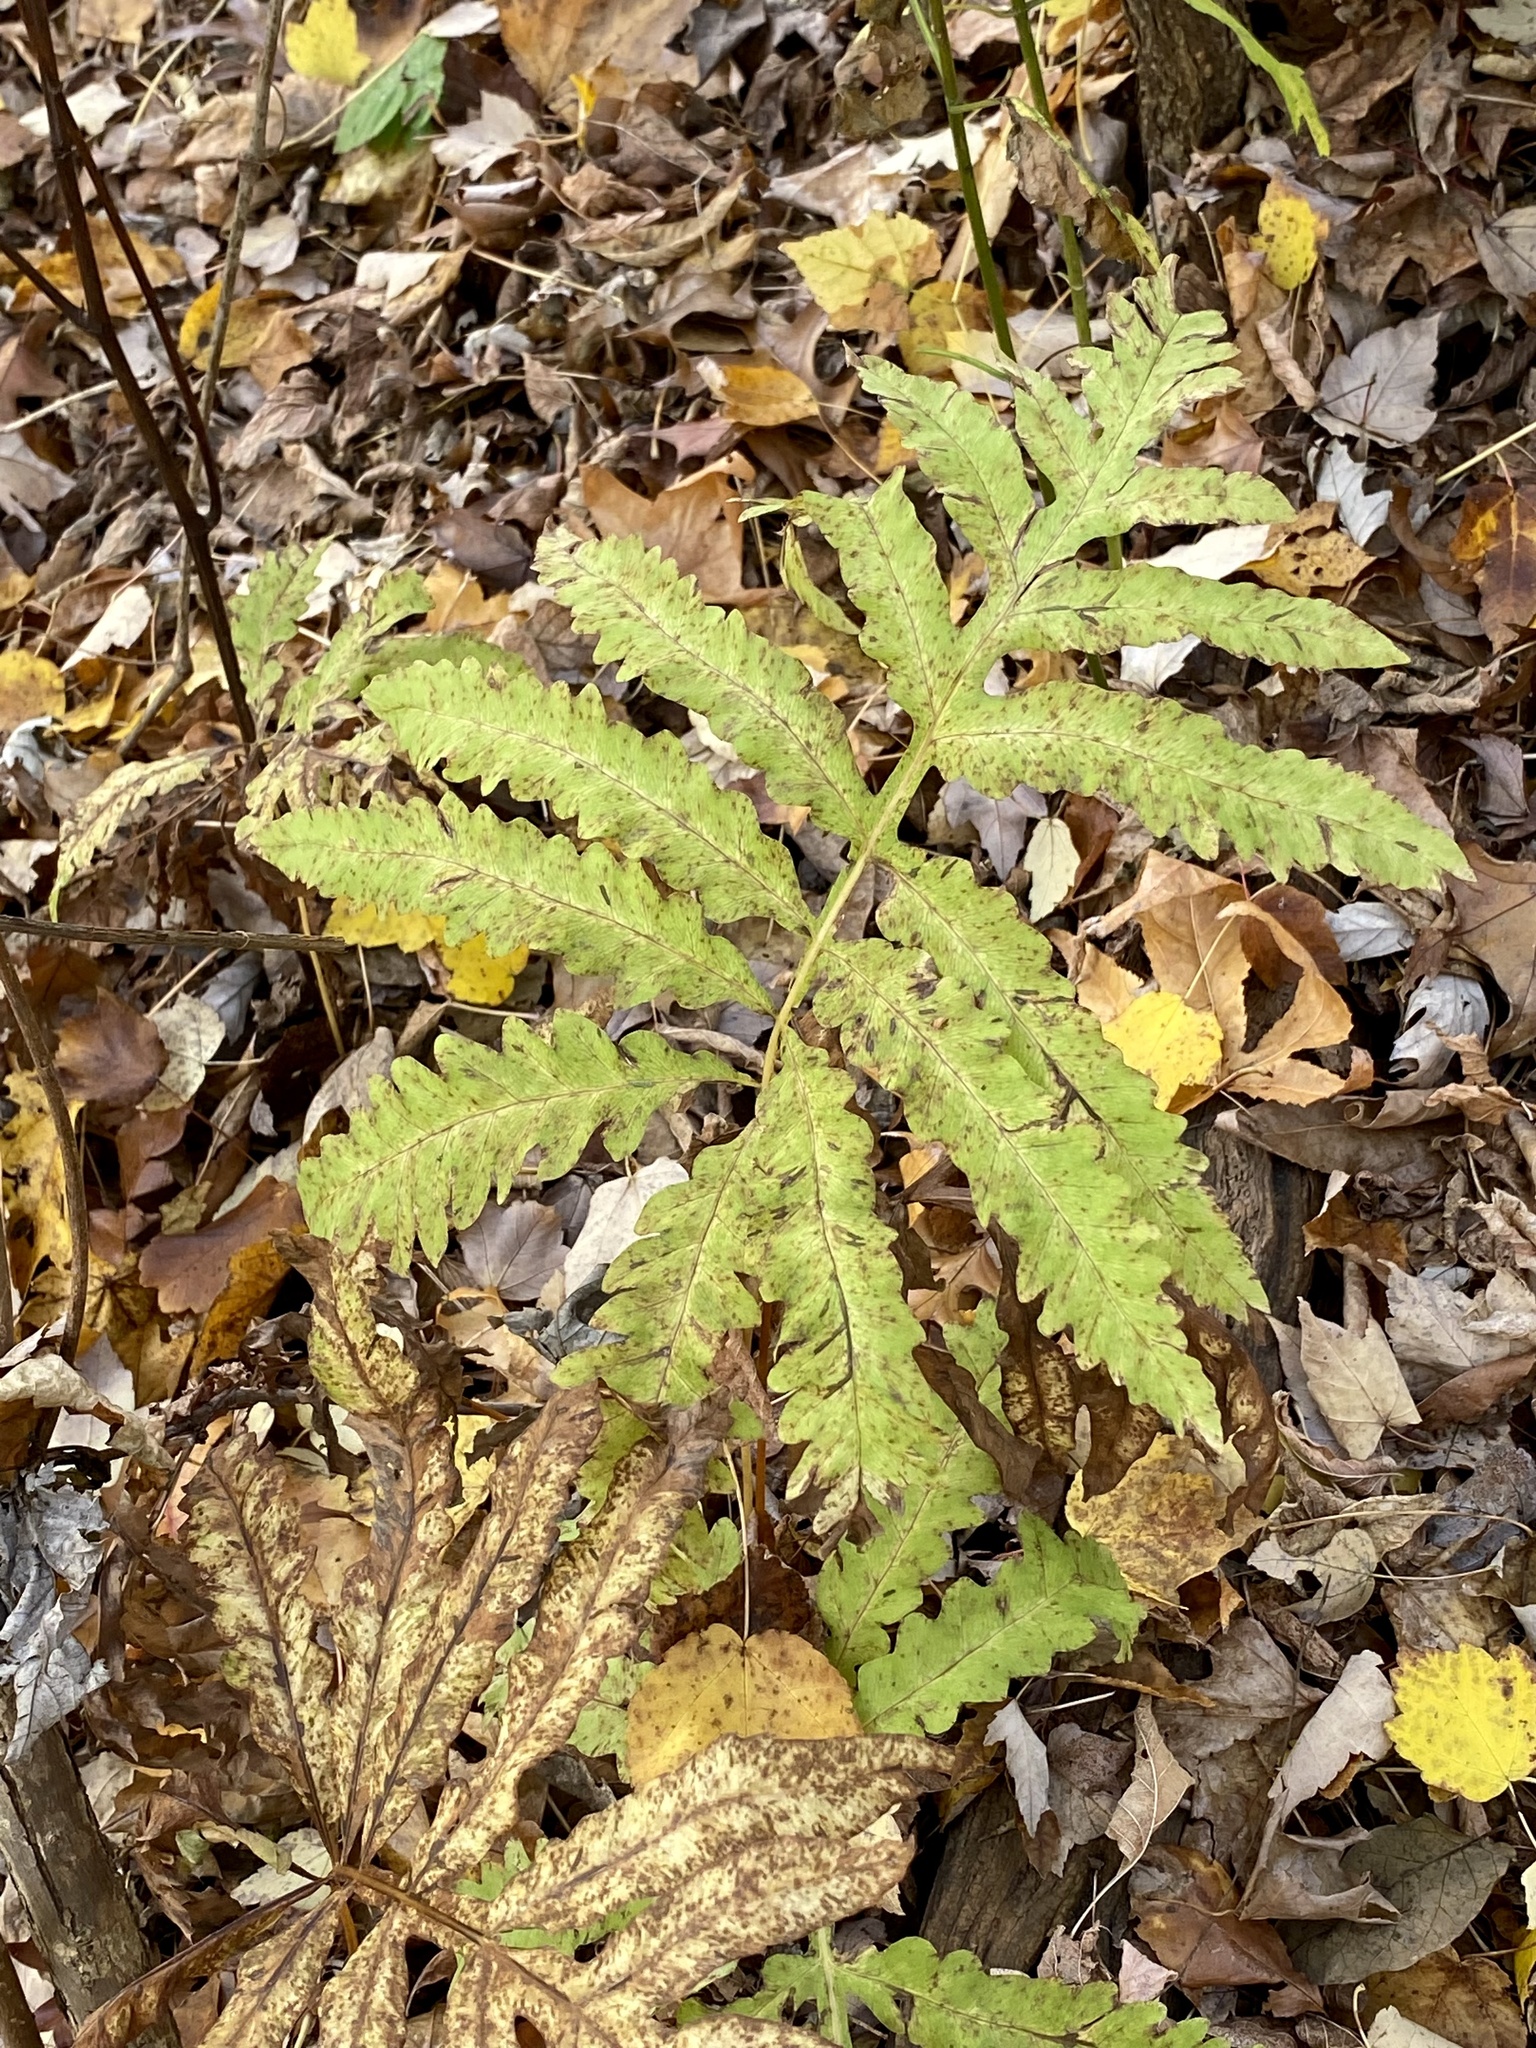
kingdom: Plantae
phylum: Tracheophyta
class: Polypodiopsida
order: Polypodiales
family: Onocleaceae
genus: Onoclea
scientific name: Onoclea sensibilis
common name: Sensitive fern
